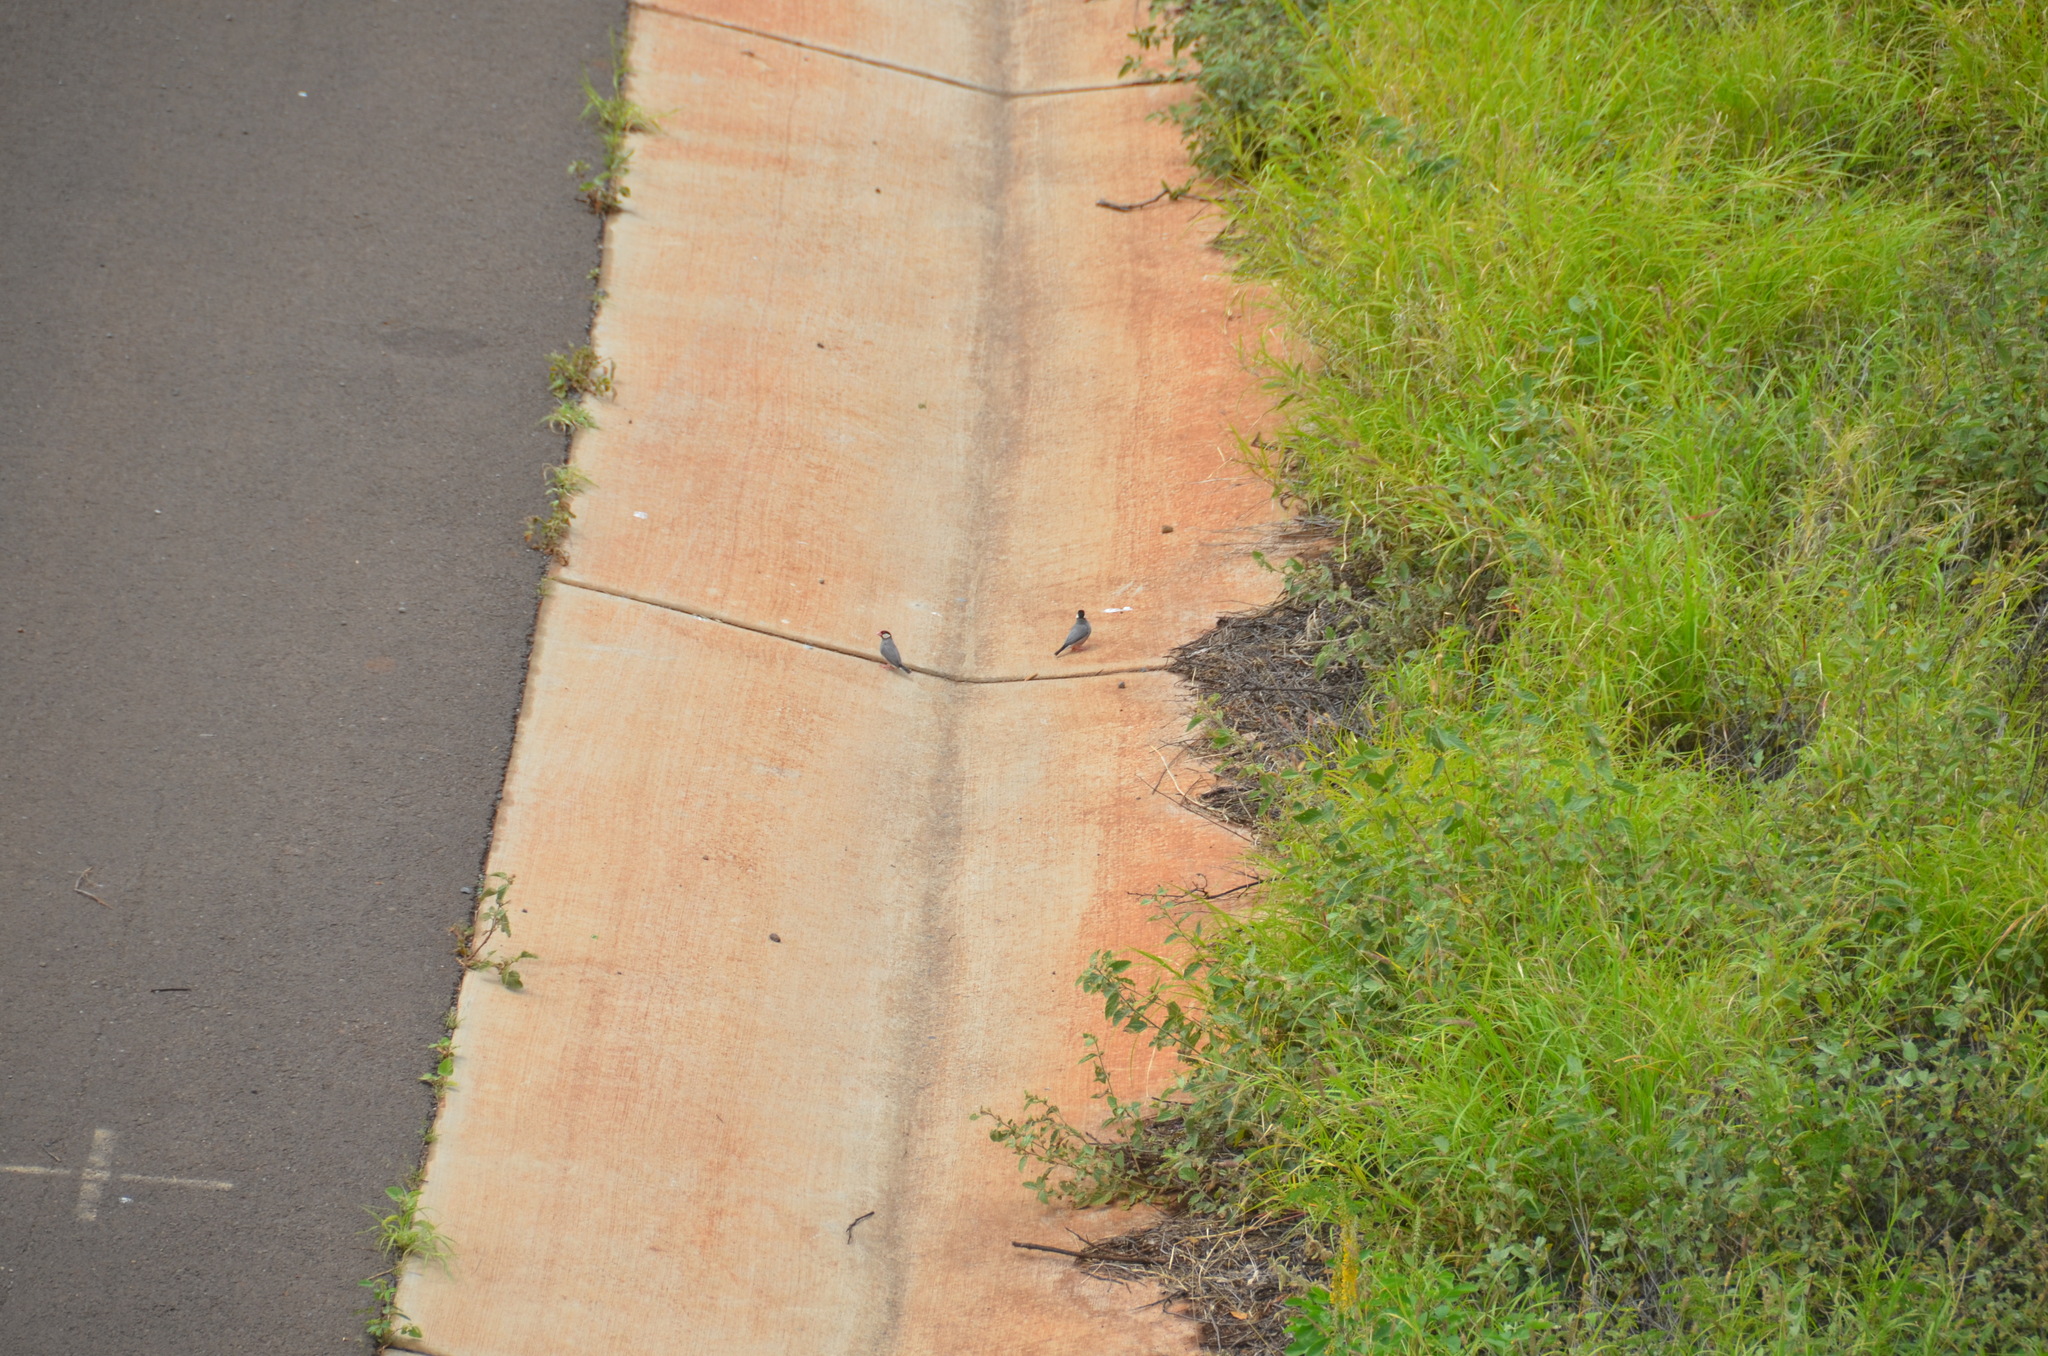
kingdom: Animalia
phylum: Chordata
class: Aves
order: Passeriformes
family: Estrildidae
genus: Lonchura
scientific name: Lonchura oryzivora
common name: Java sparrow
